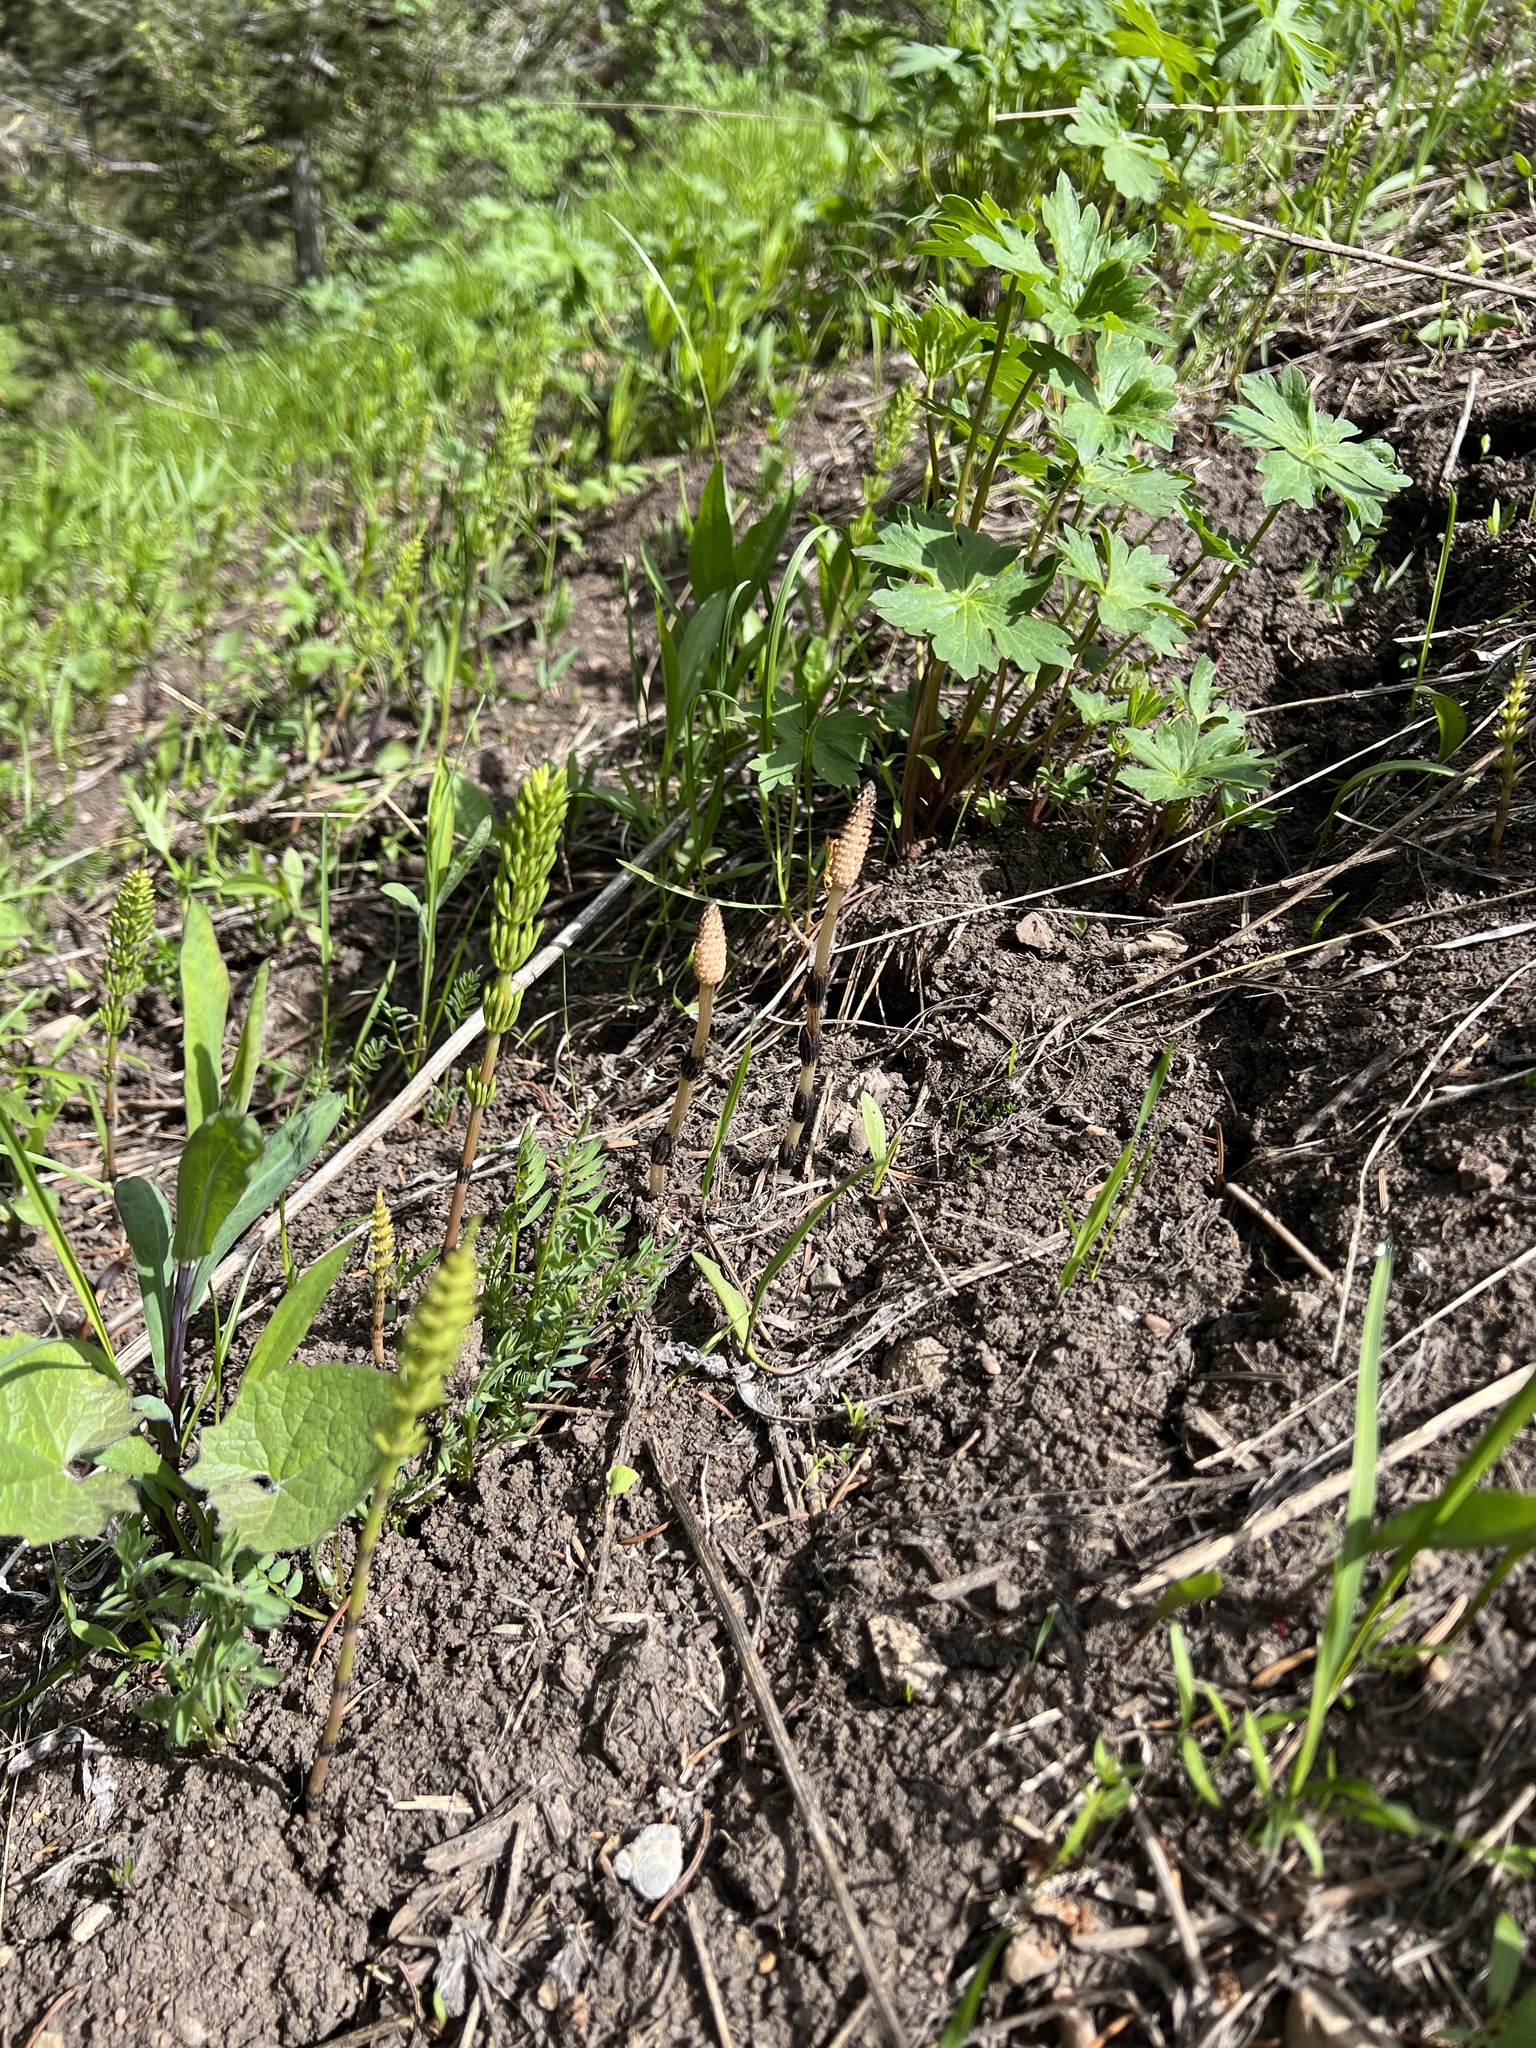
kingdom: Plantae
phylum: Tracheophyta
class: Polypodiopsida
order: Equisetales
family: Equisetaceae
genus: Equisetum
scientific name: Equisetum arvense
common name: Field horsetail
